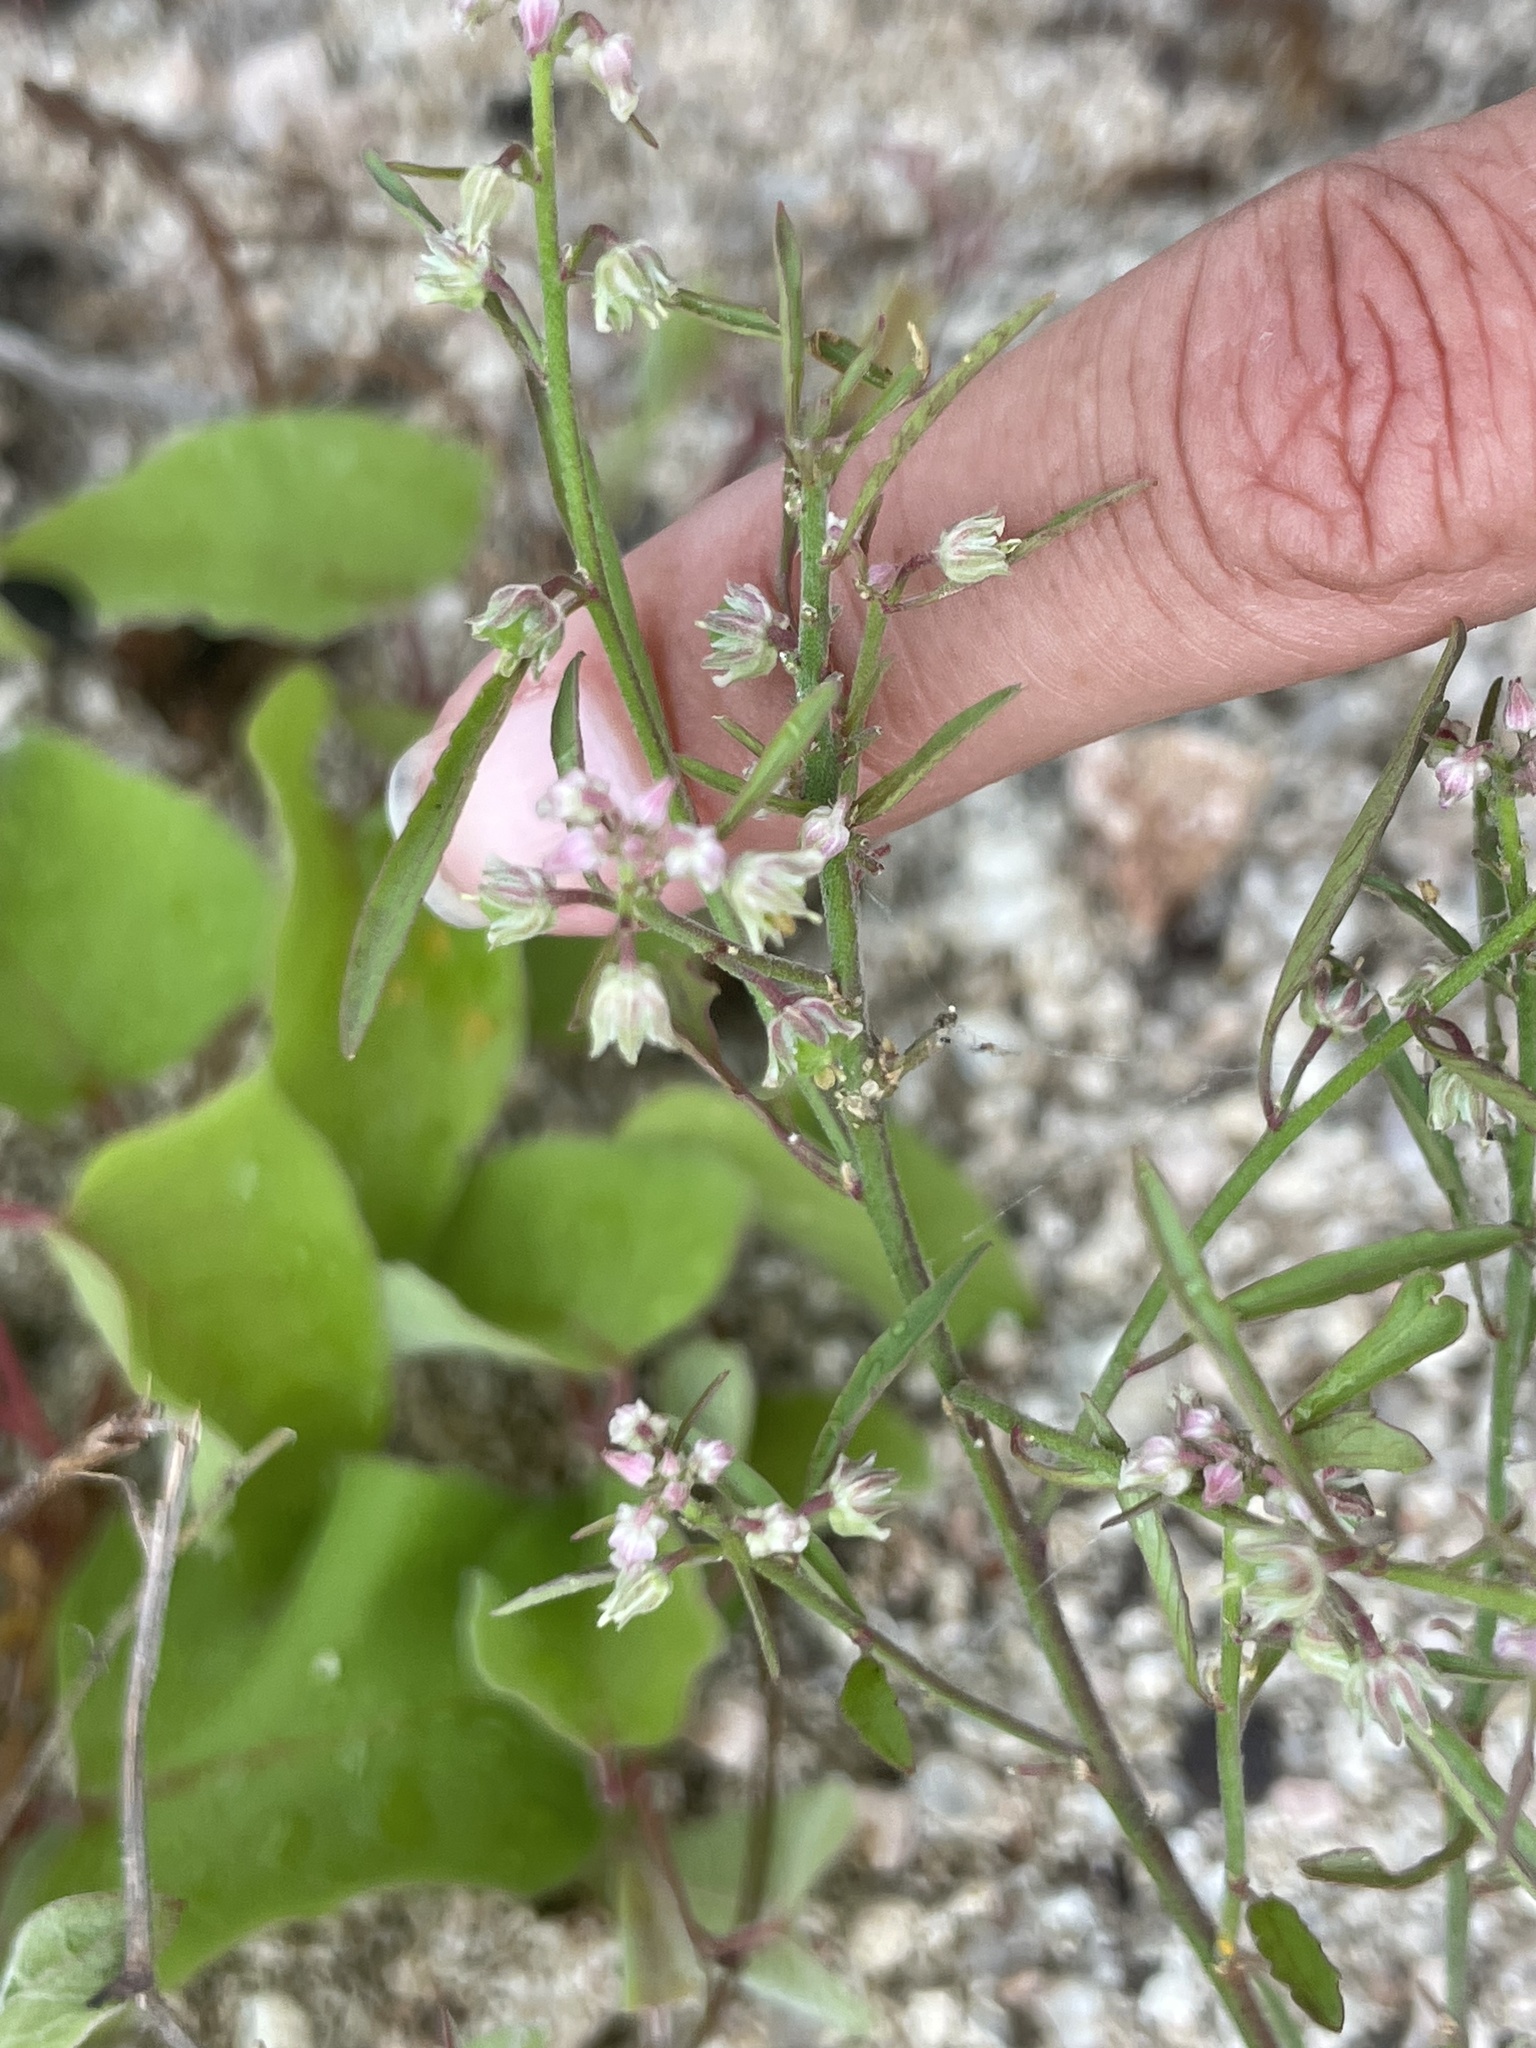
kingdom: Plantae
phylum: Tracheophyta
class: Magnoliopsida
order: Malpighiales
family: Violaceae
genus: Hybanthus
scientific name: Hybanthus fruticulosus
